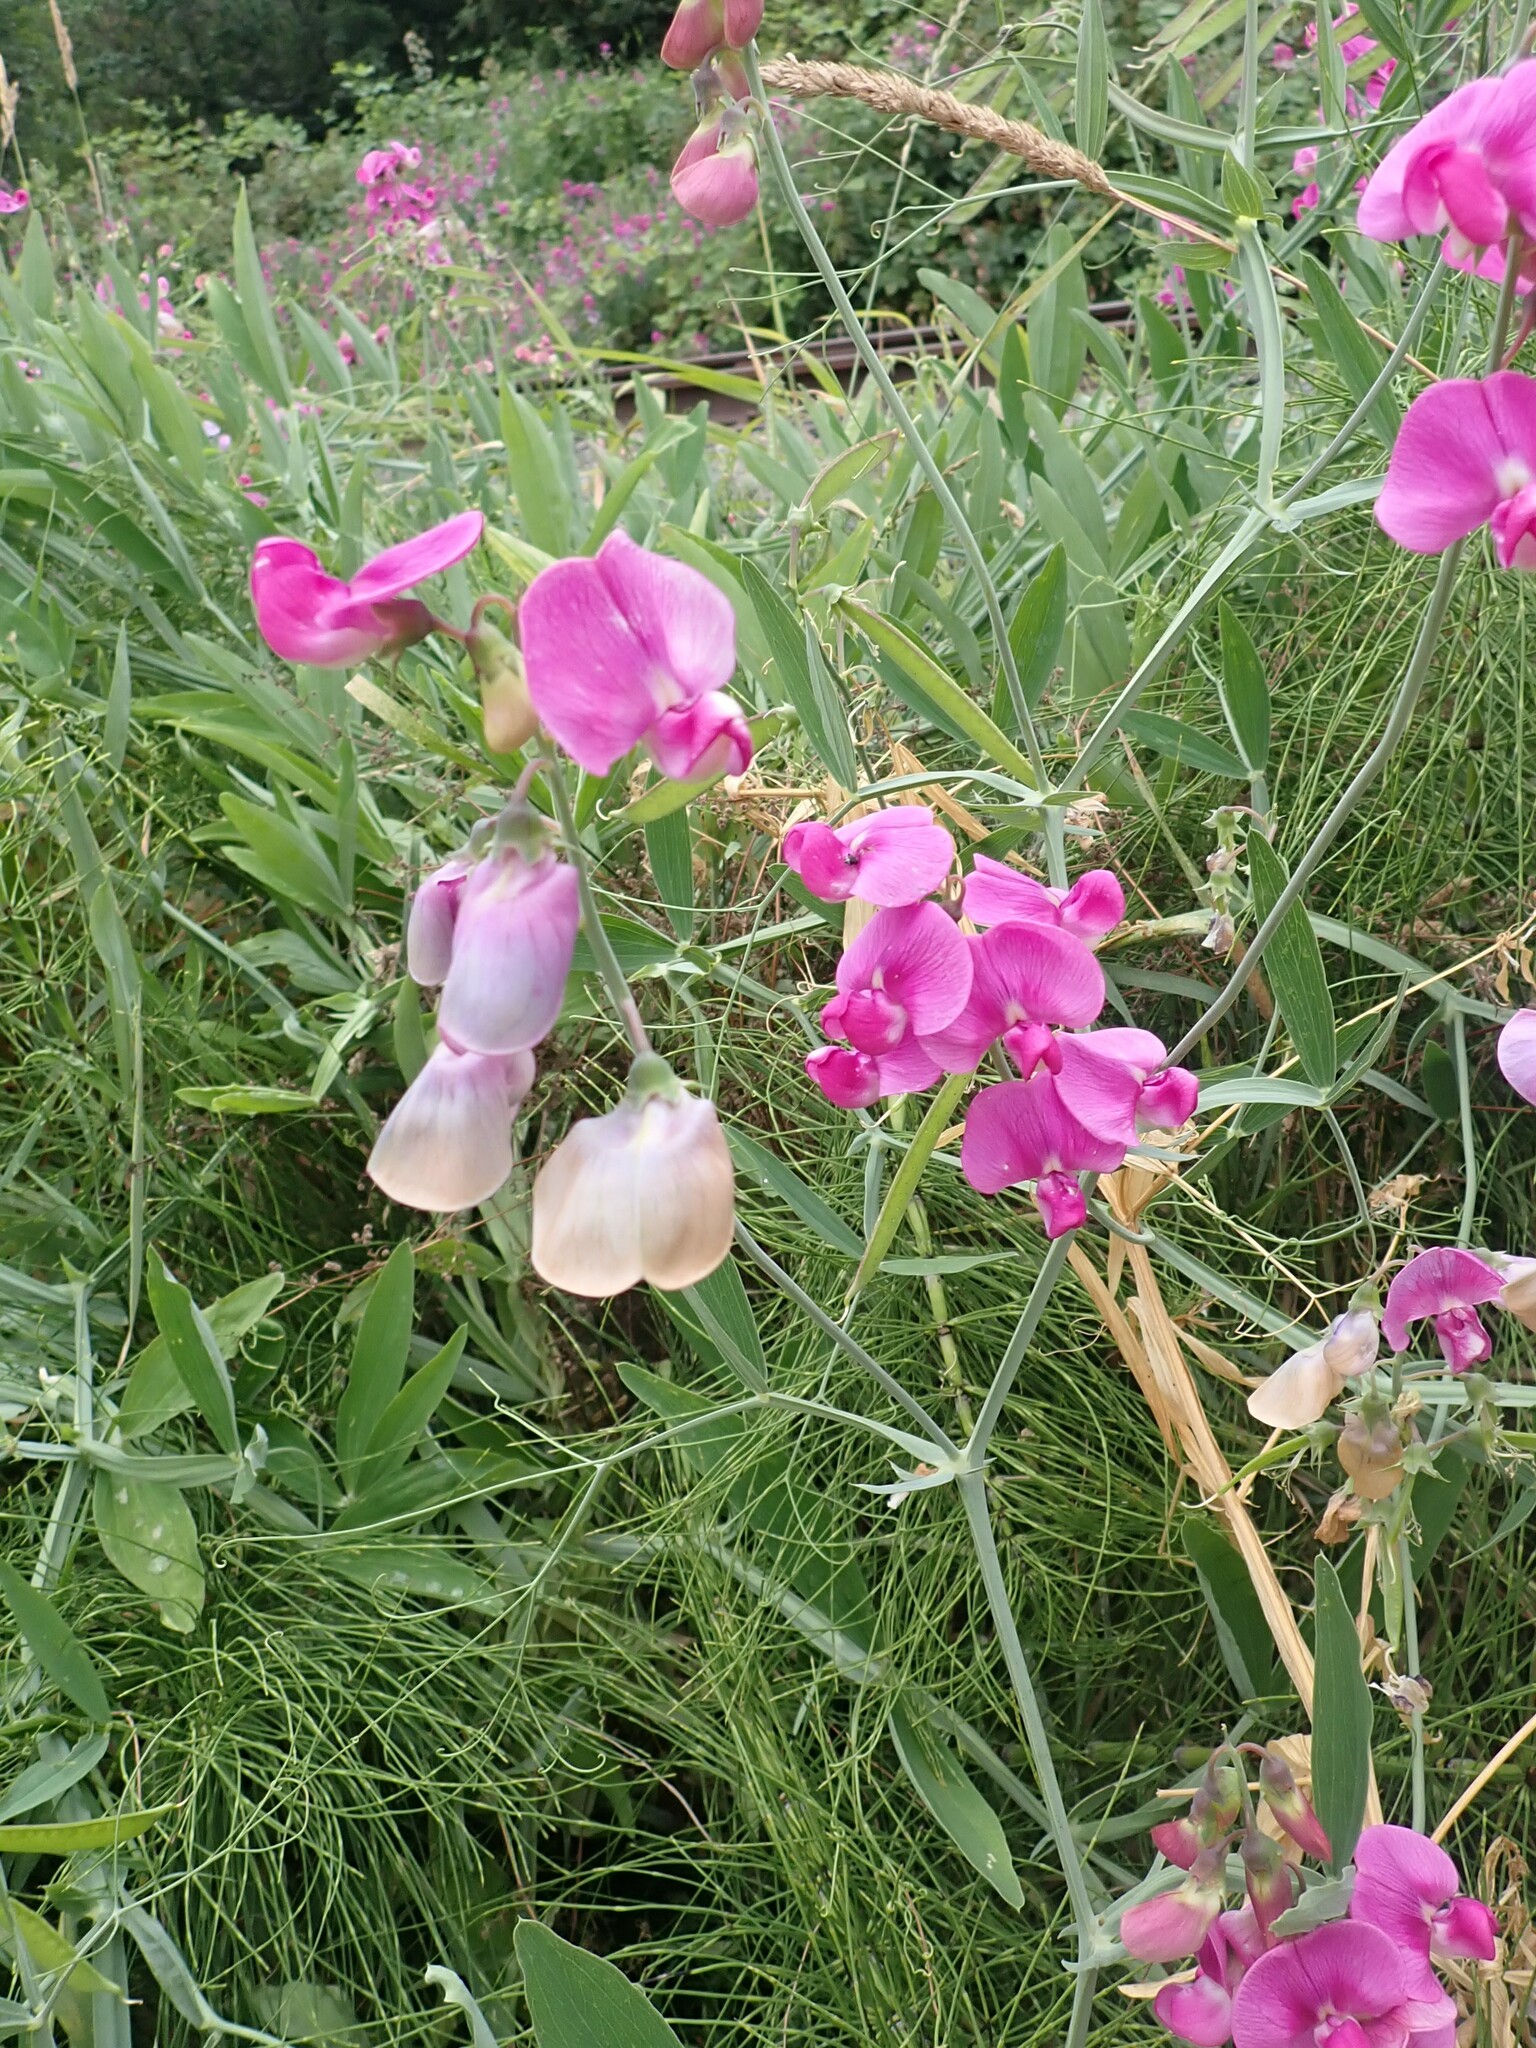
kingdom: Plantae
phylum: Tracheophyta
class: Magnoliopsida
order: Fabales
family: Fabaceae
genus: Lathyrus
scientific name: Lathyrus latifolius
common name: Perennial pea
